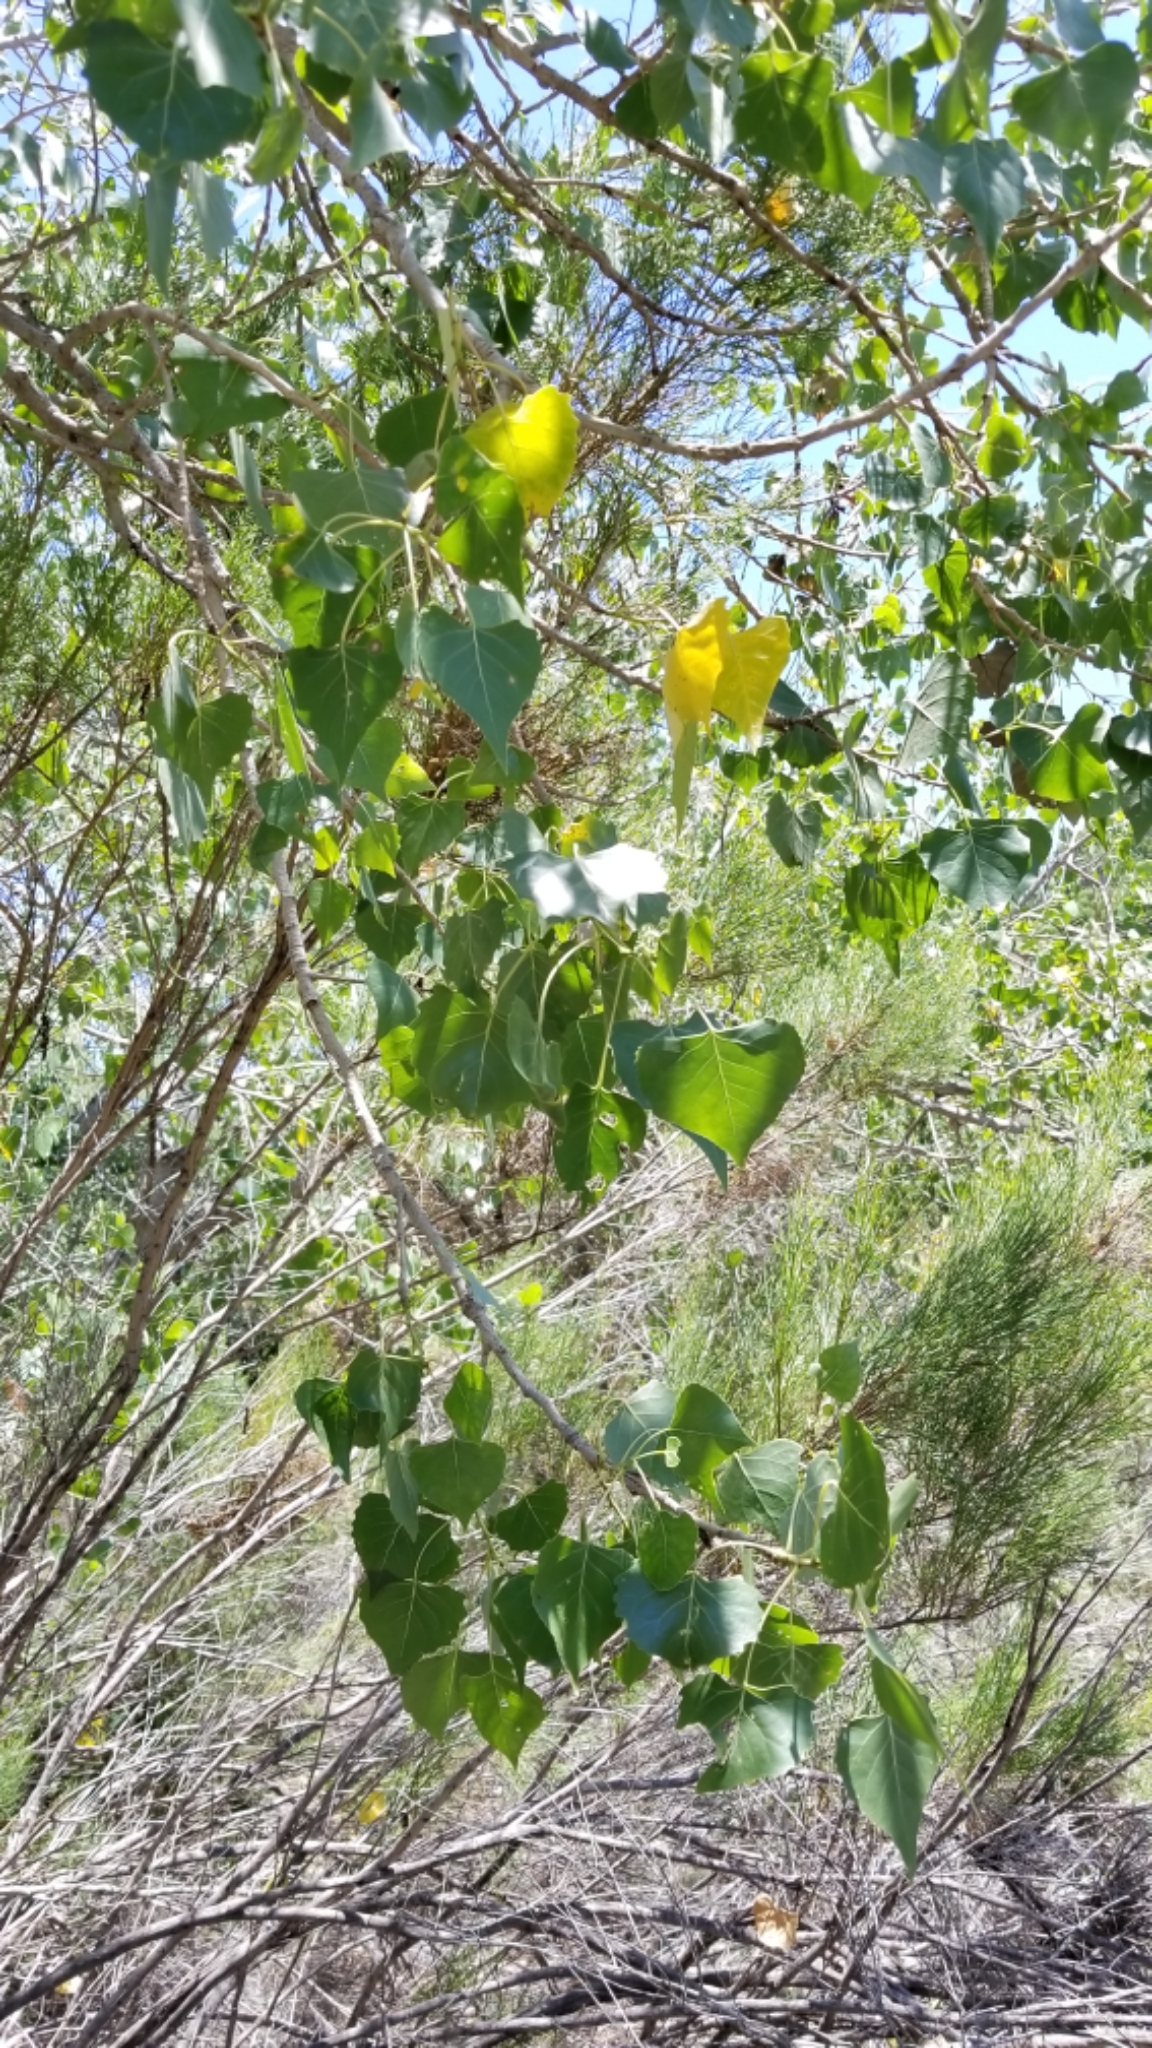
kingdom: Plantae
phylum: Tracheophyta
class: Magnoliopsida
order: Malpighiales
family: Salicaceae
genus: Populus
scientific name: Populus fremontii
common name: Fremont's cottonwood
